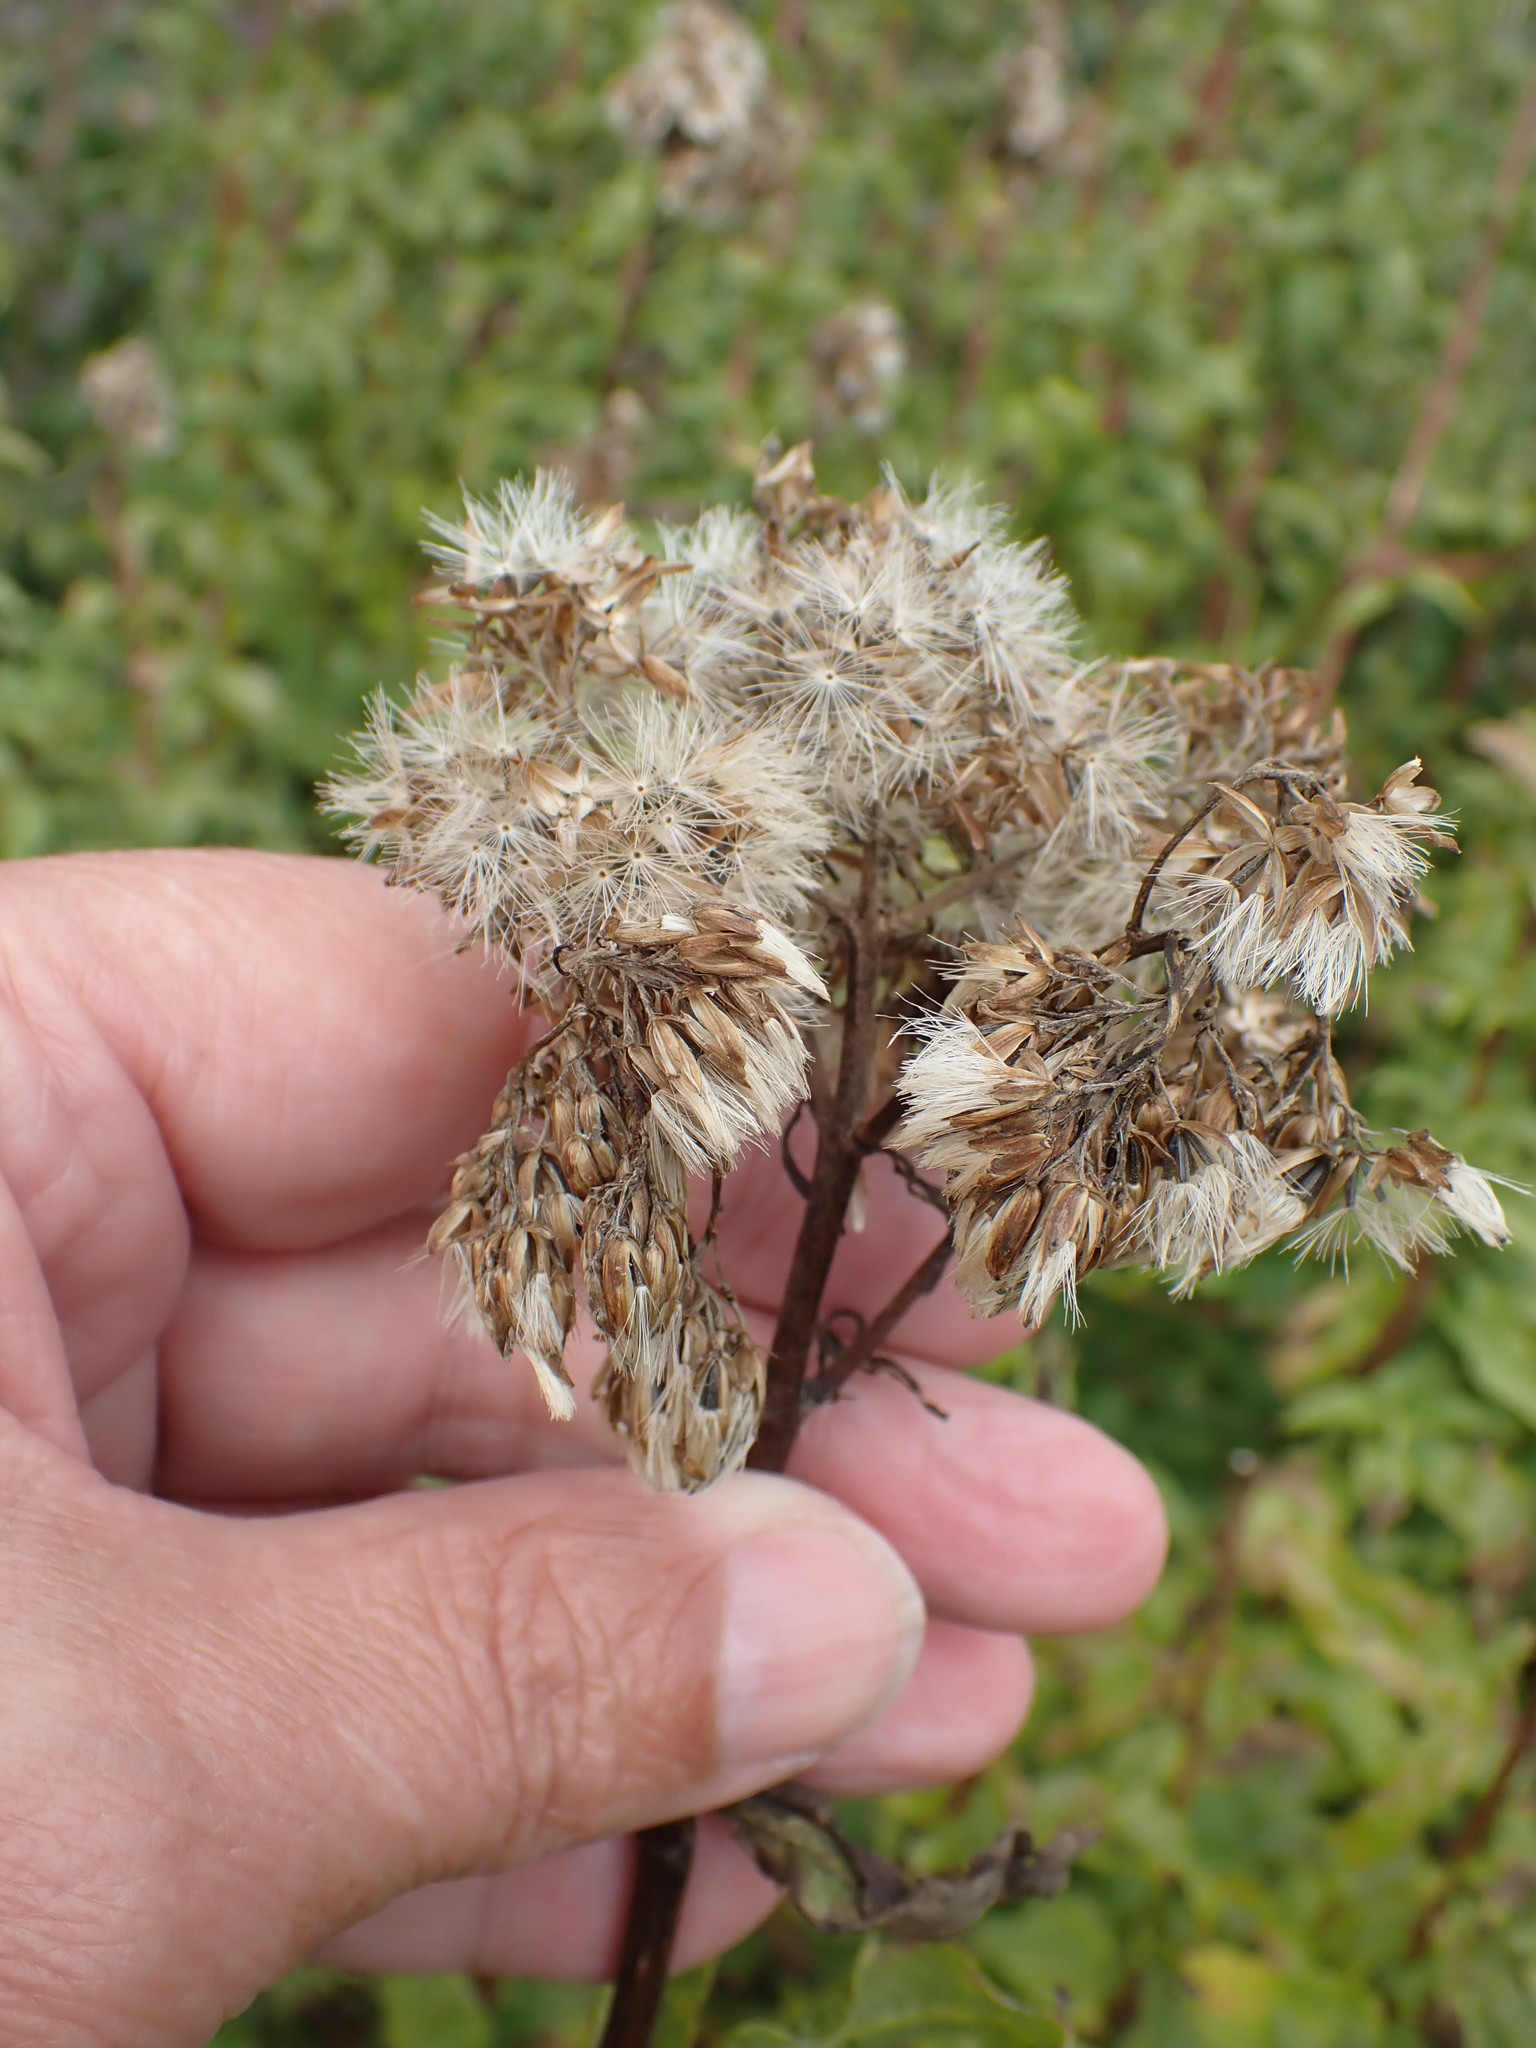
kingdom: Plantae
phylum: Tracheophyta
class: Magnoliopsida
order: Asterales
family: Asteraceae
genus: Eupatorium
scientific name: Eupatorium cannabinum
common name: Hemp-agrimony
